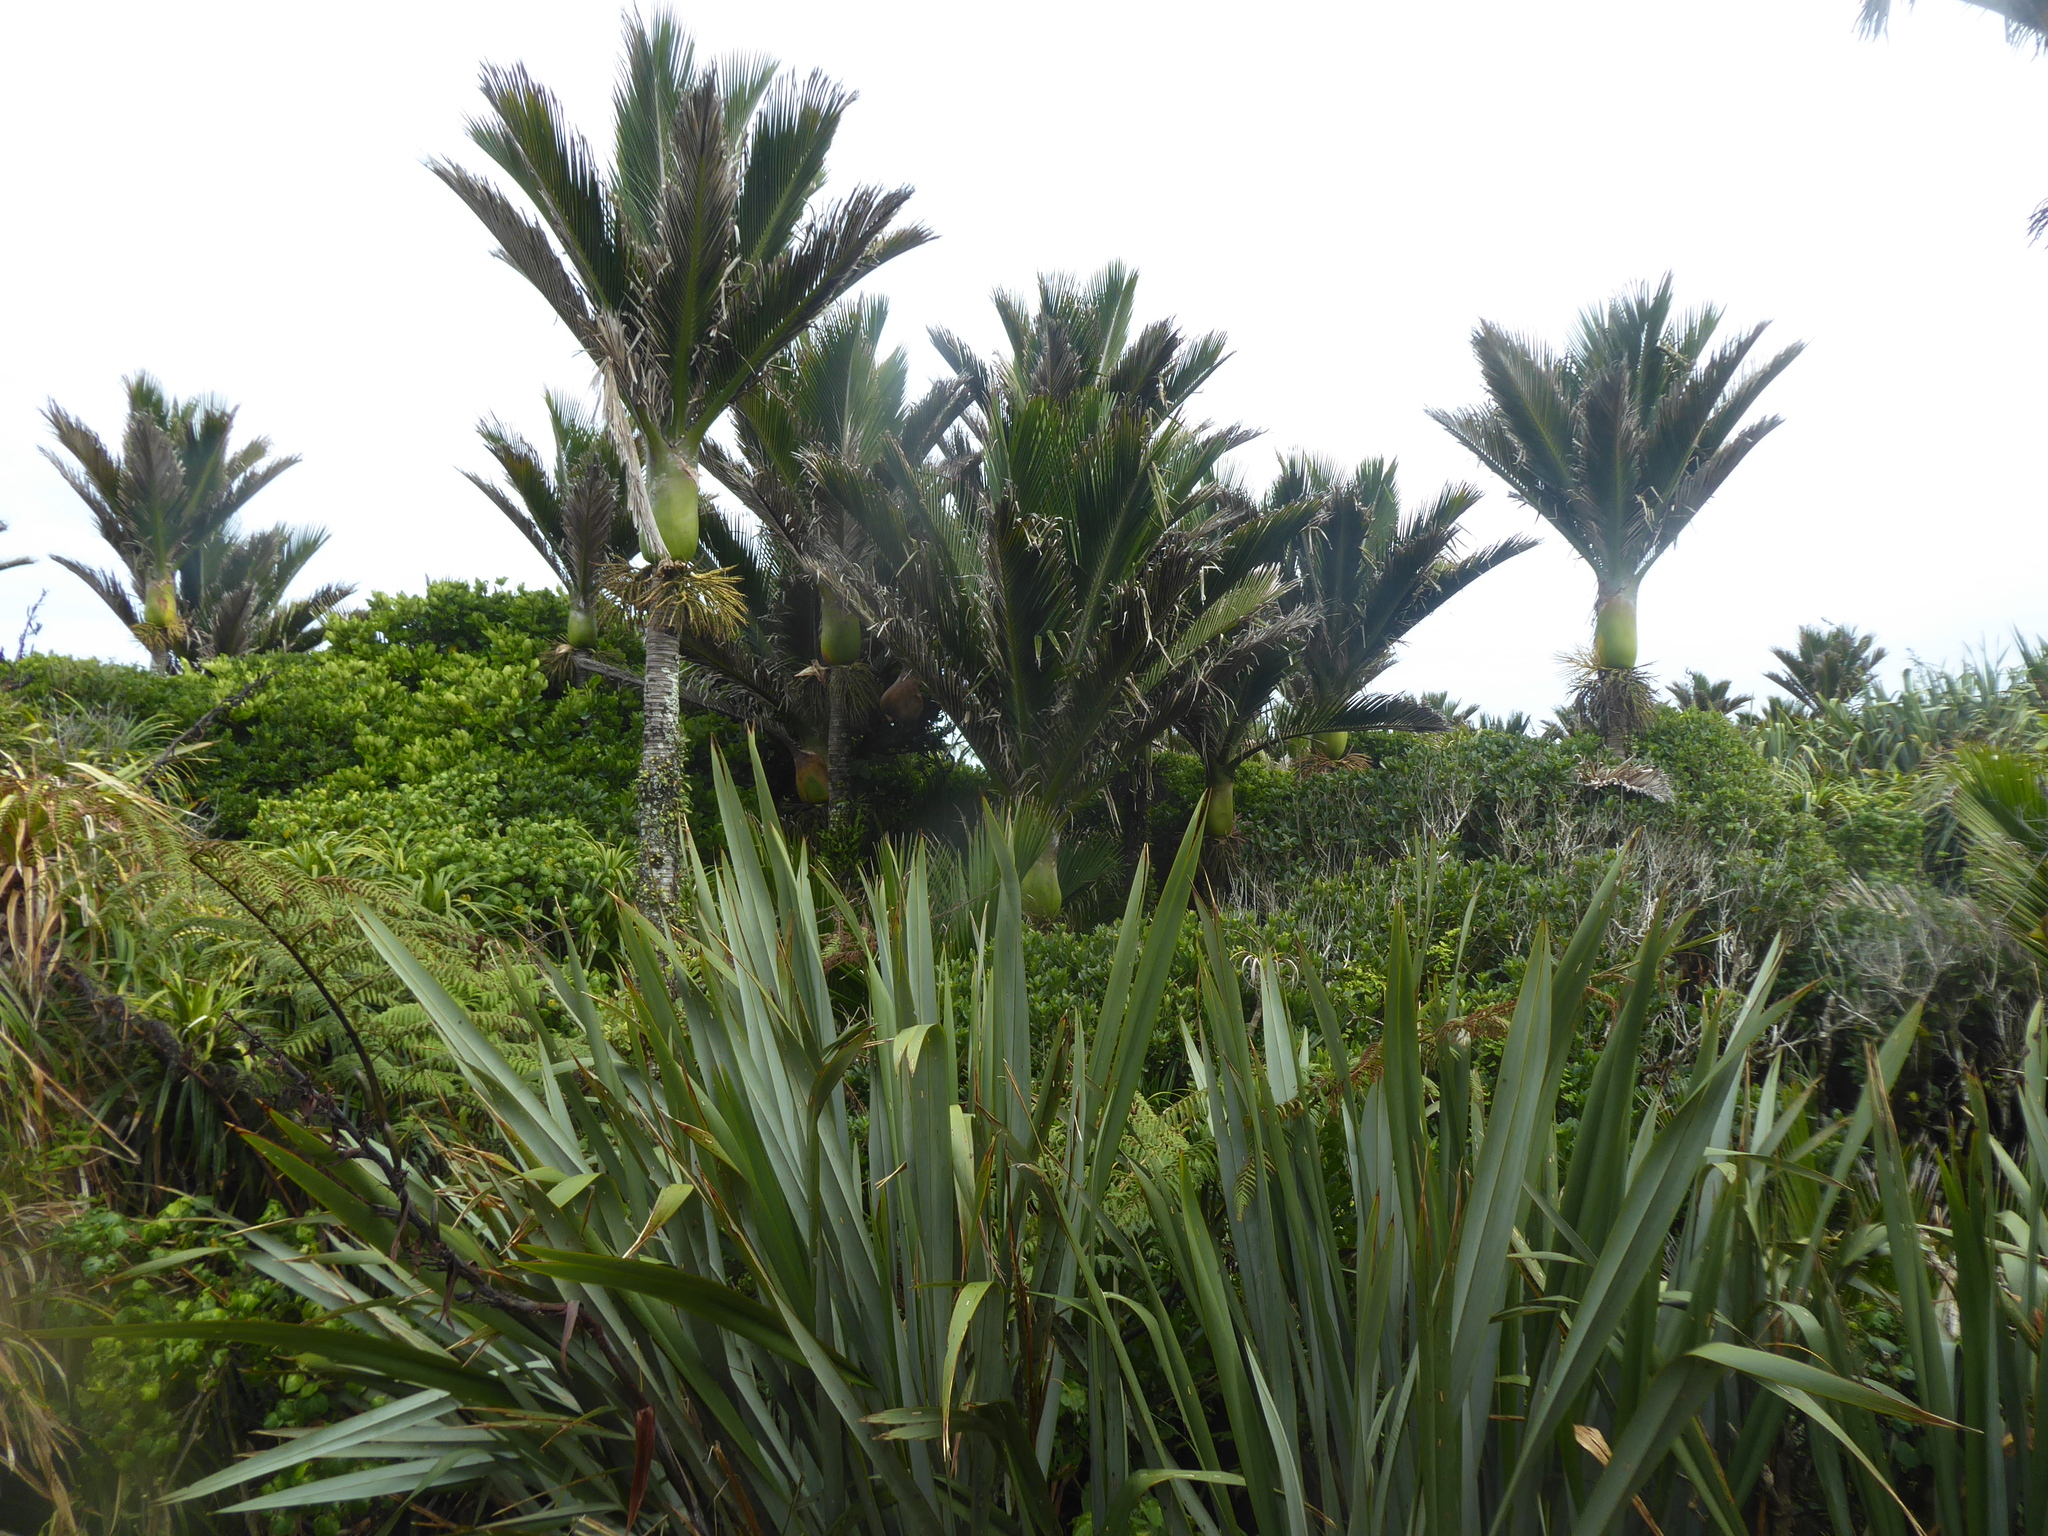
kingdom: Plantae
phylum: Tracheophyta
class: Liliopsida
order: Arecales
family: Arecaceae
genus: Rhopalostylis
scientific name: Rhopalostylis sapida
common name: Feather-duster palm
